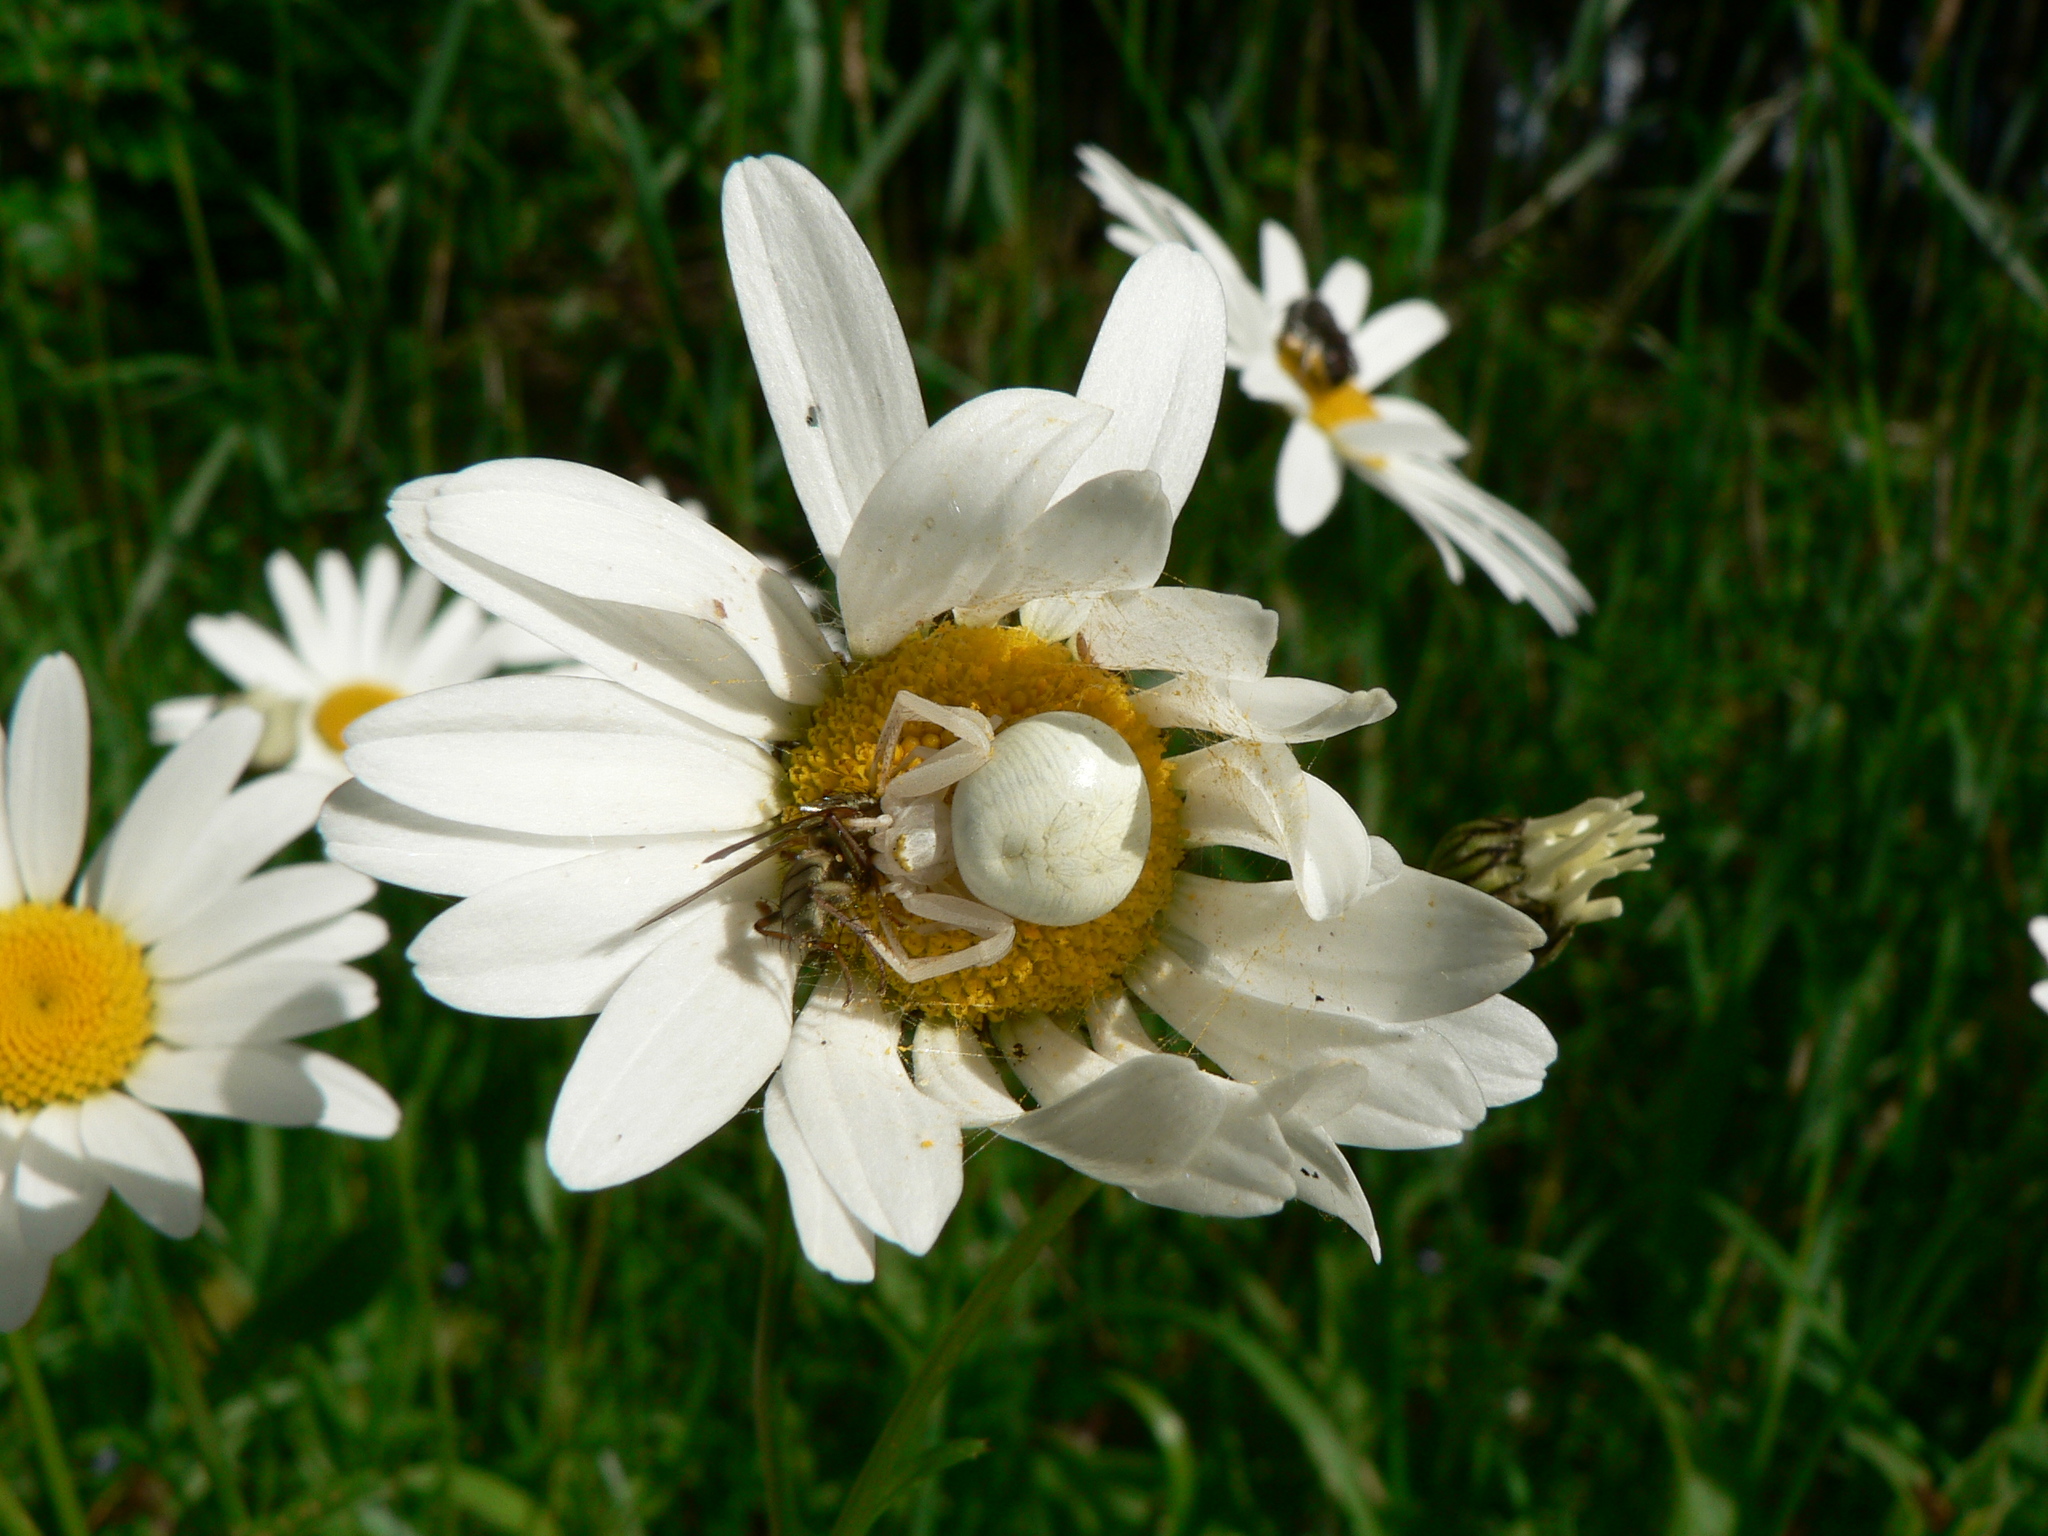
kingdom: Animalia
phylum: Arthropoda
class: Arachnida
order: Araneae
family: Thomisidae
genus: Misumena
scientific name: Misumena vatia
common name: Goldenrod crab spider
